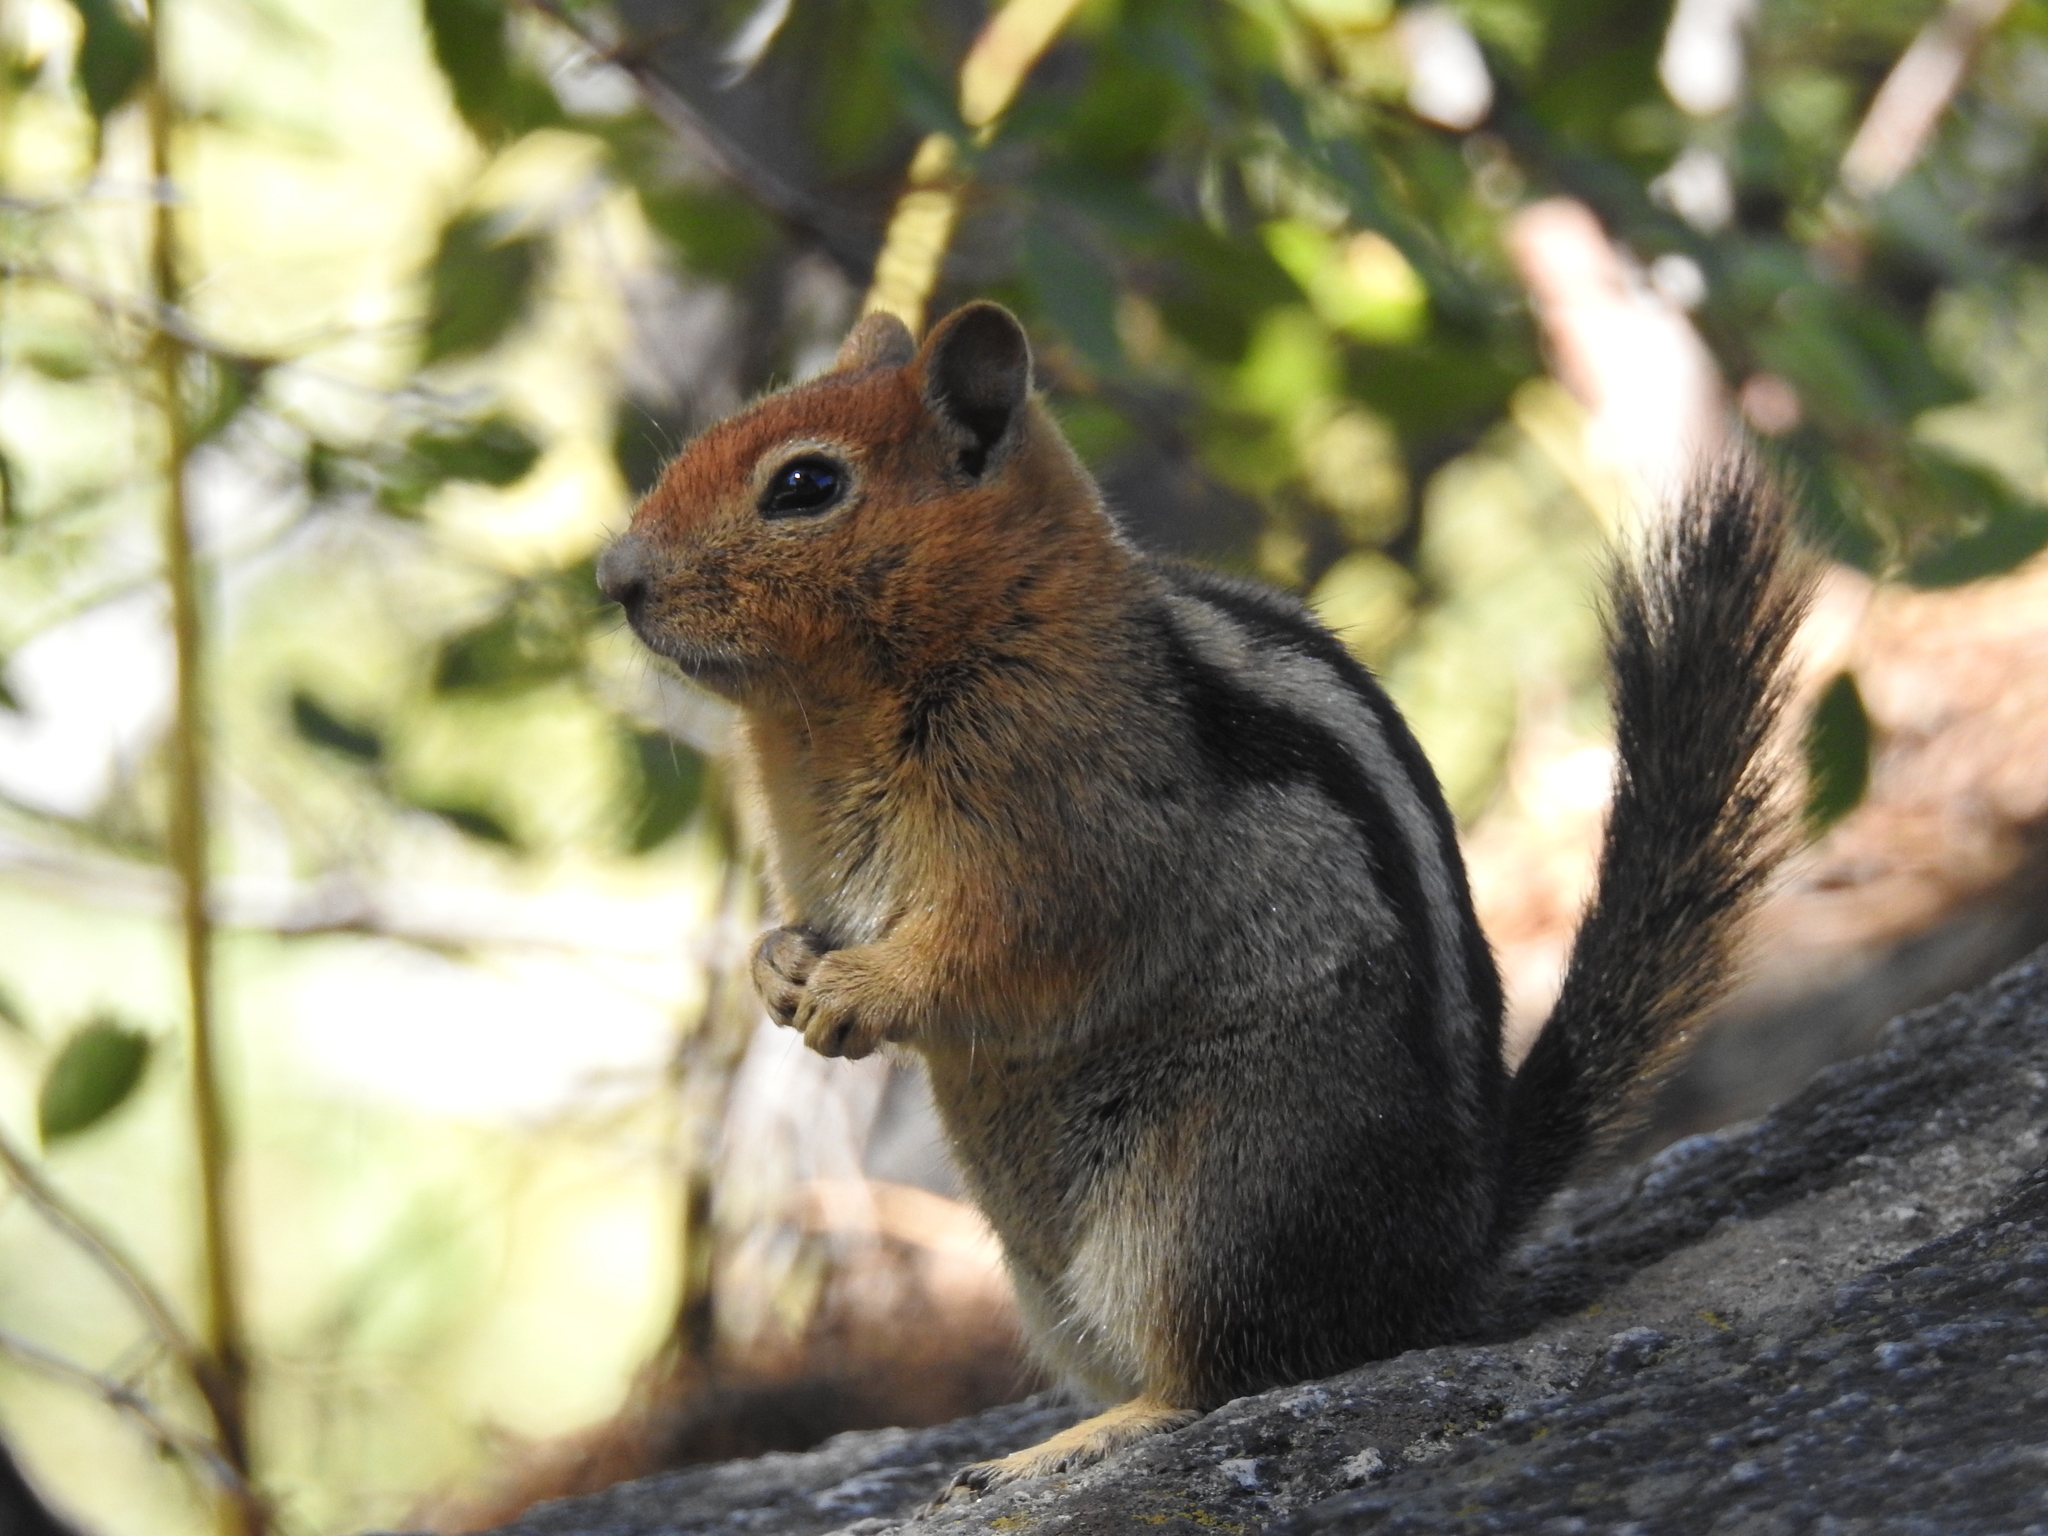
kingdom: Animalia
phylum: Chordata
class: Mammalia
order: Rodentia
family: Sciuridae
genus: Callospermophilus
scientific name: Callospermophilus lateralis
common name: Golden-mantled ground squirrel
